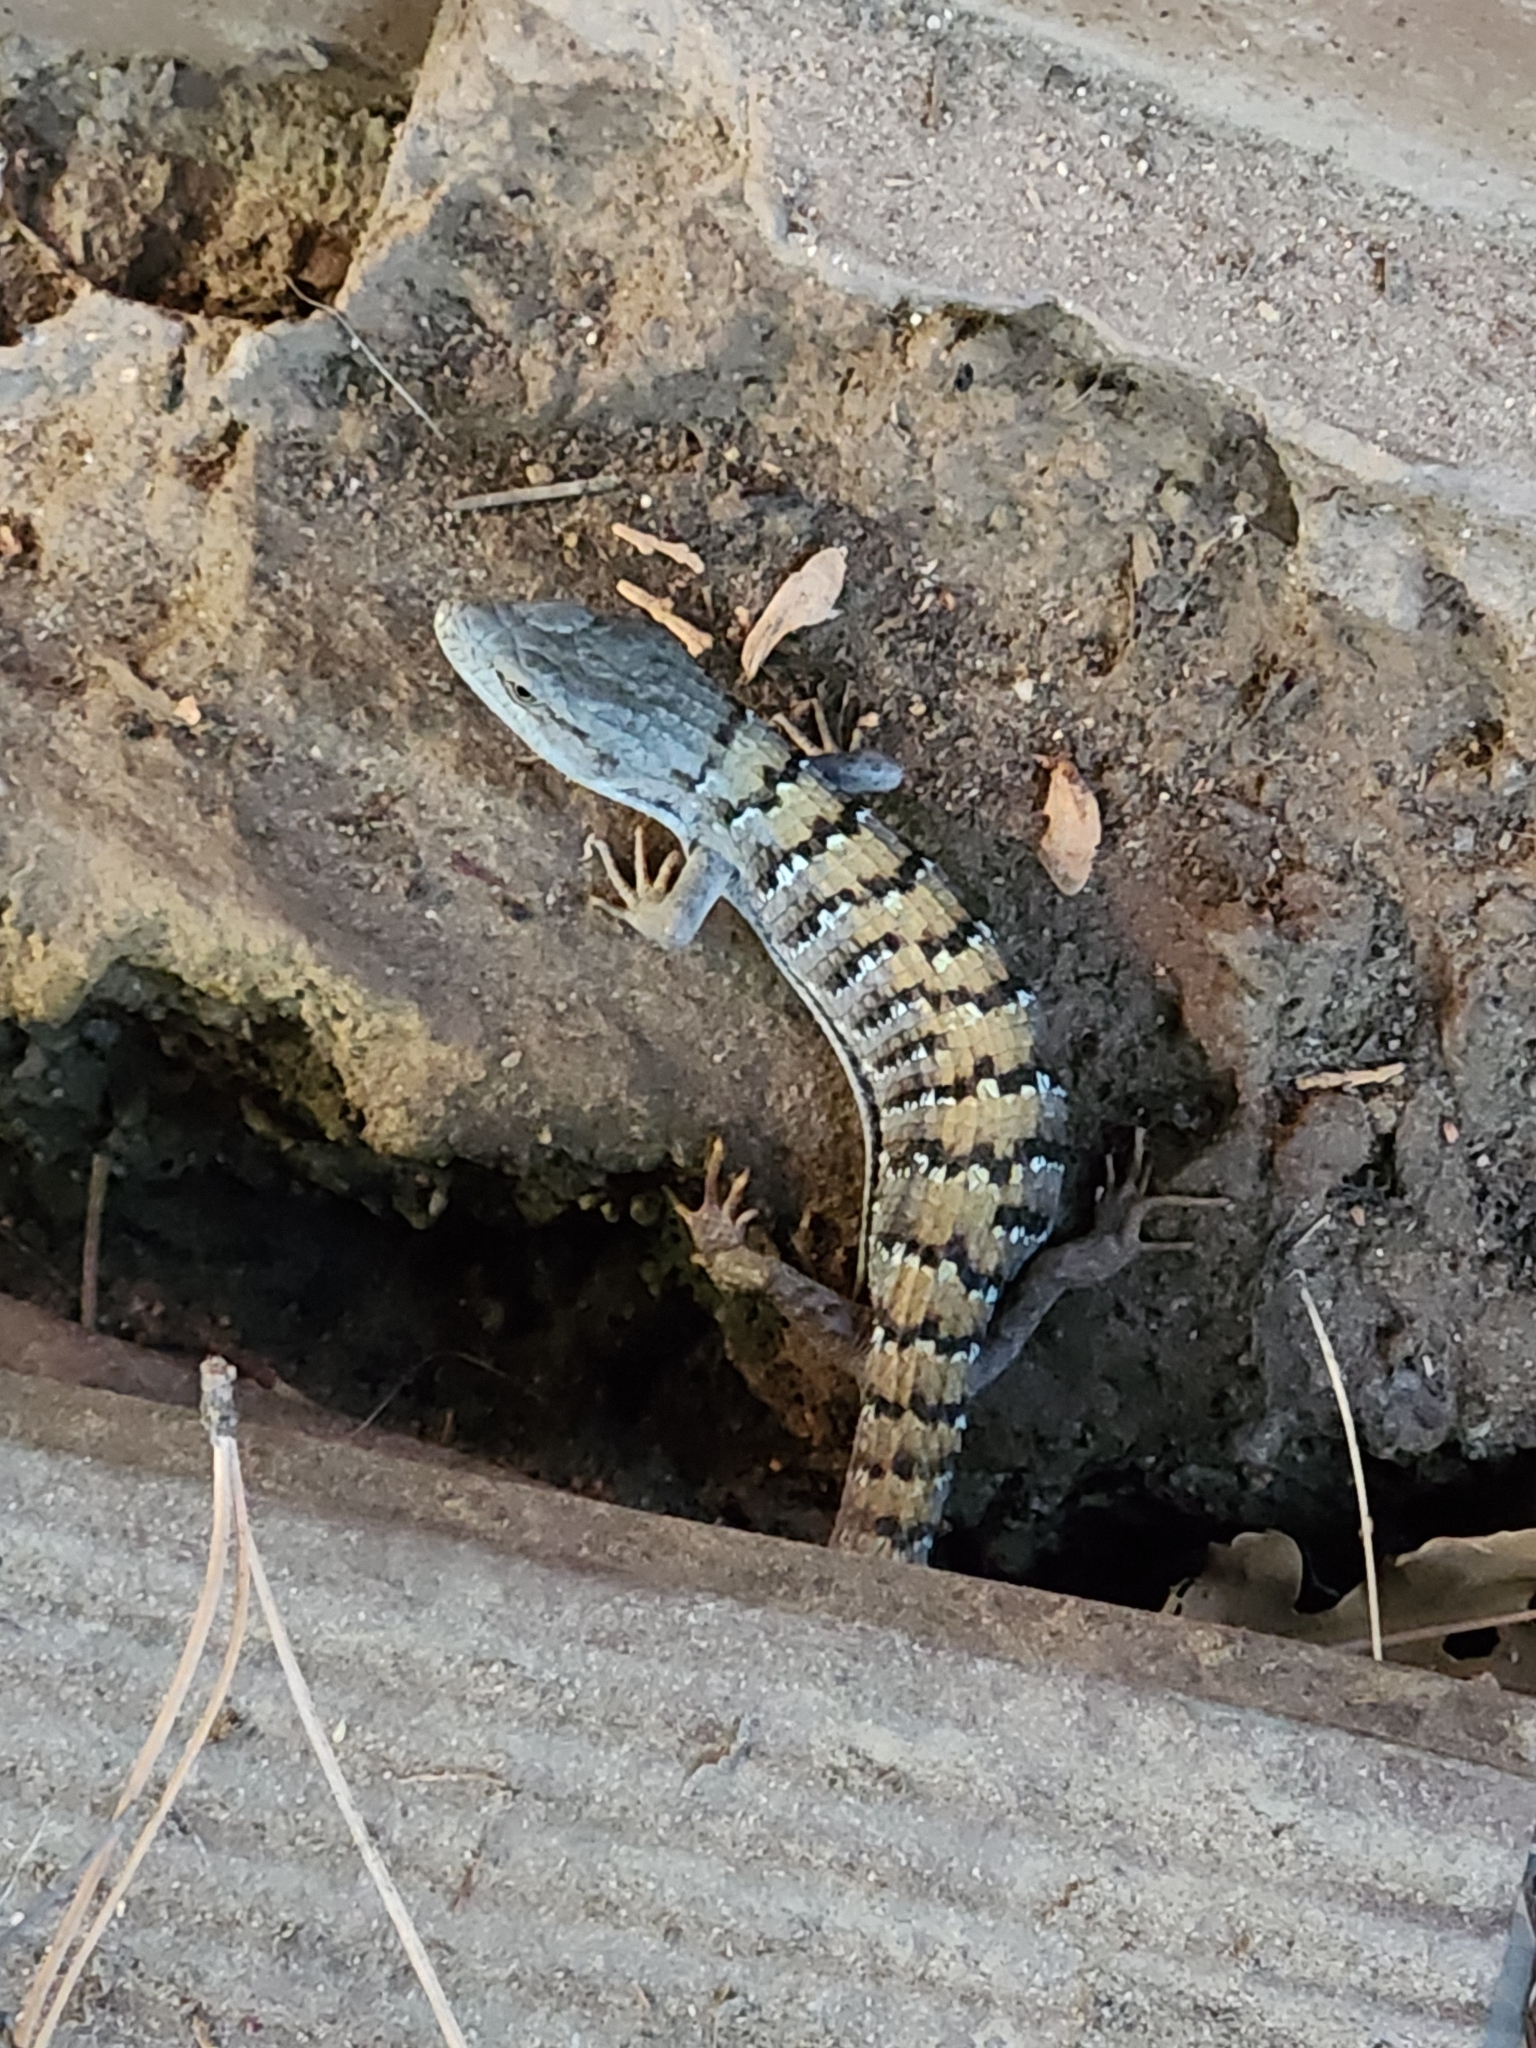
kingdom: Animalia
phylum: Chordata
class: Squamata
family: Anguidae
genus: Elgaria
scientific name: Elgaria multicarinata
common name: Southern alligator lizard
